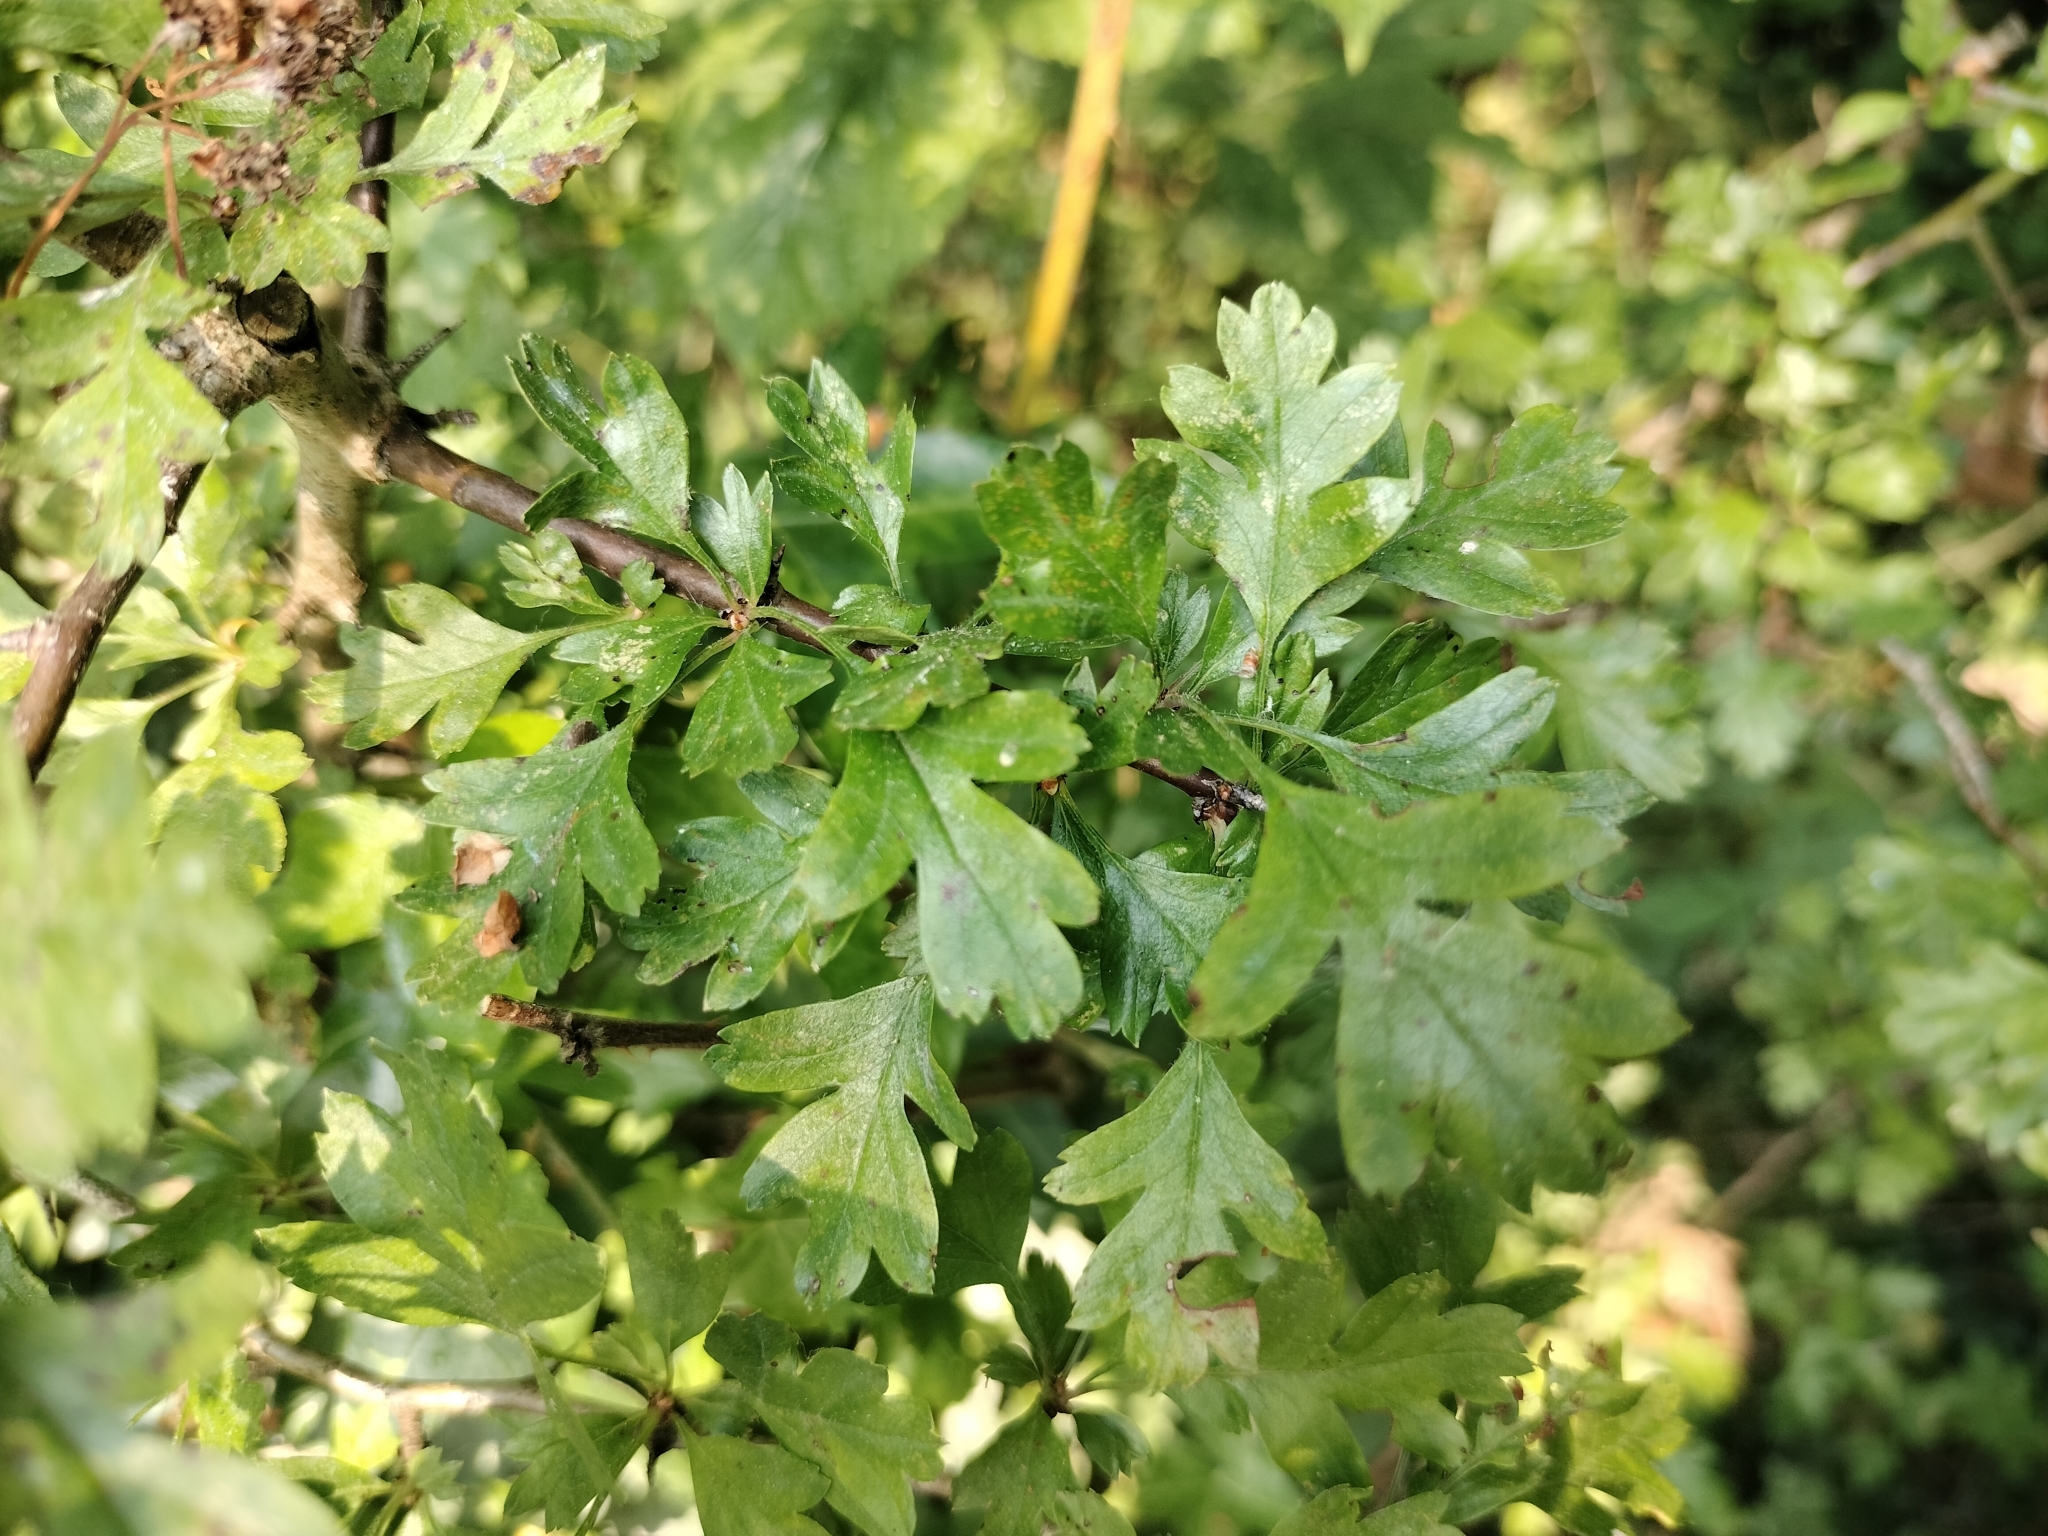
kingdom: Plantae
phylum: Tracheophyta
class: Magnoliopsida
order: Rosales
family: Rosaceae
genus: Crataegus
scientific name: Crataegus monogyna
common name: Hawthorn
